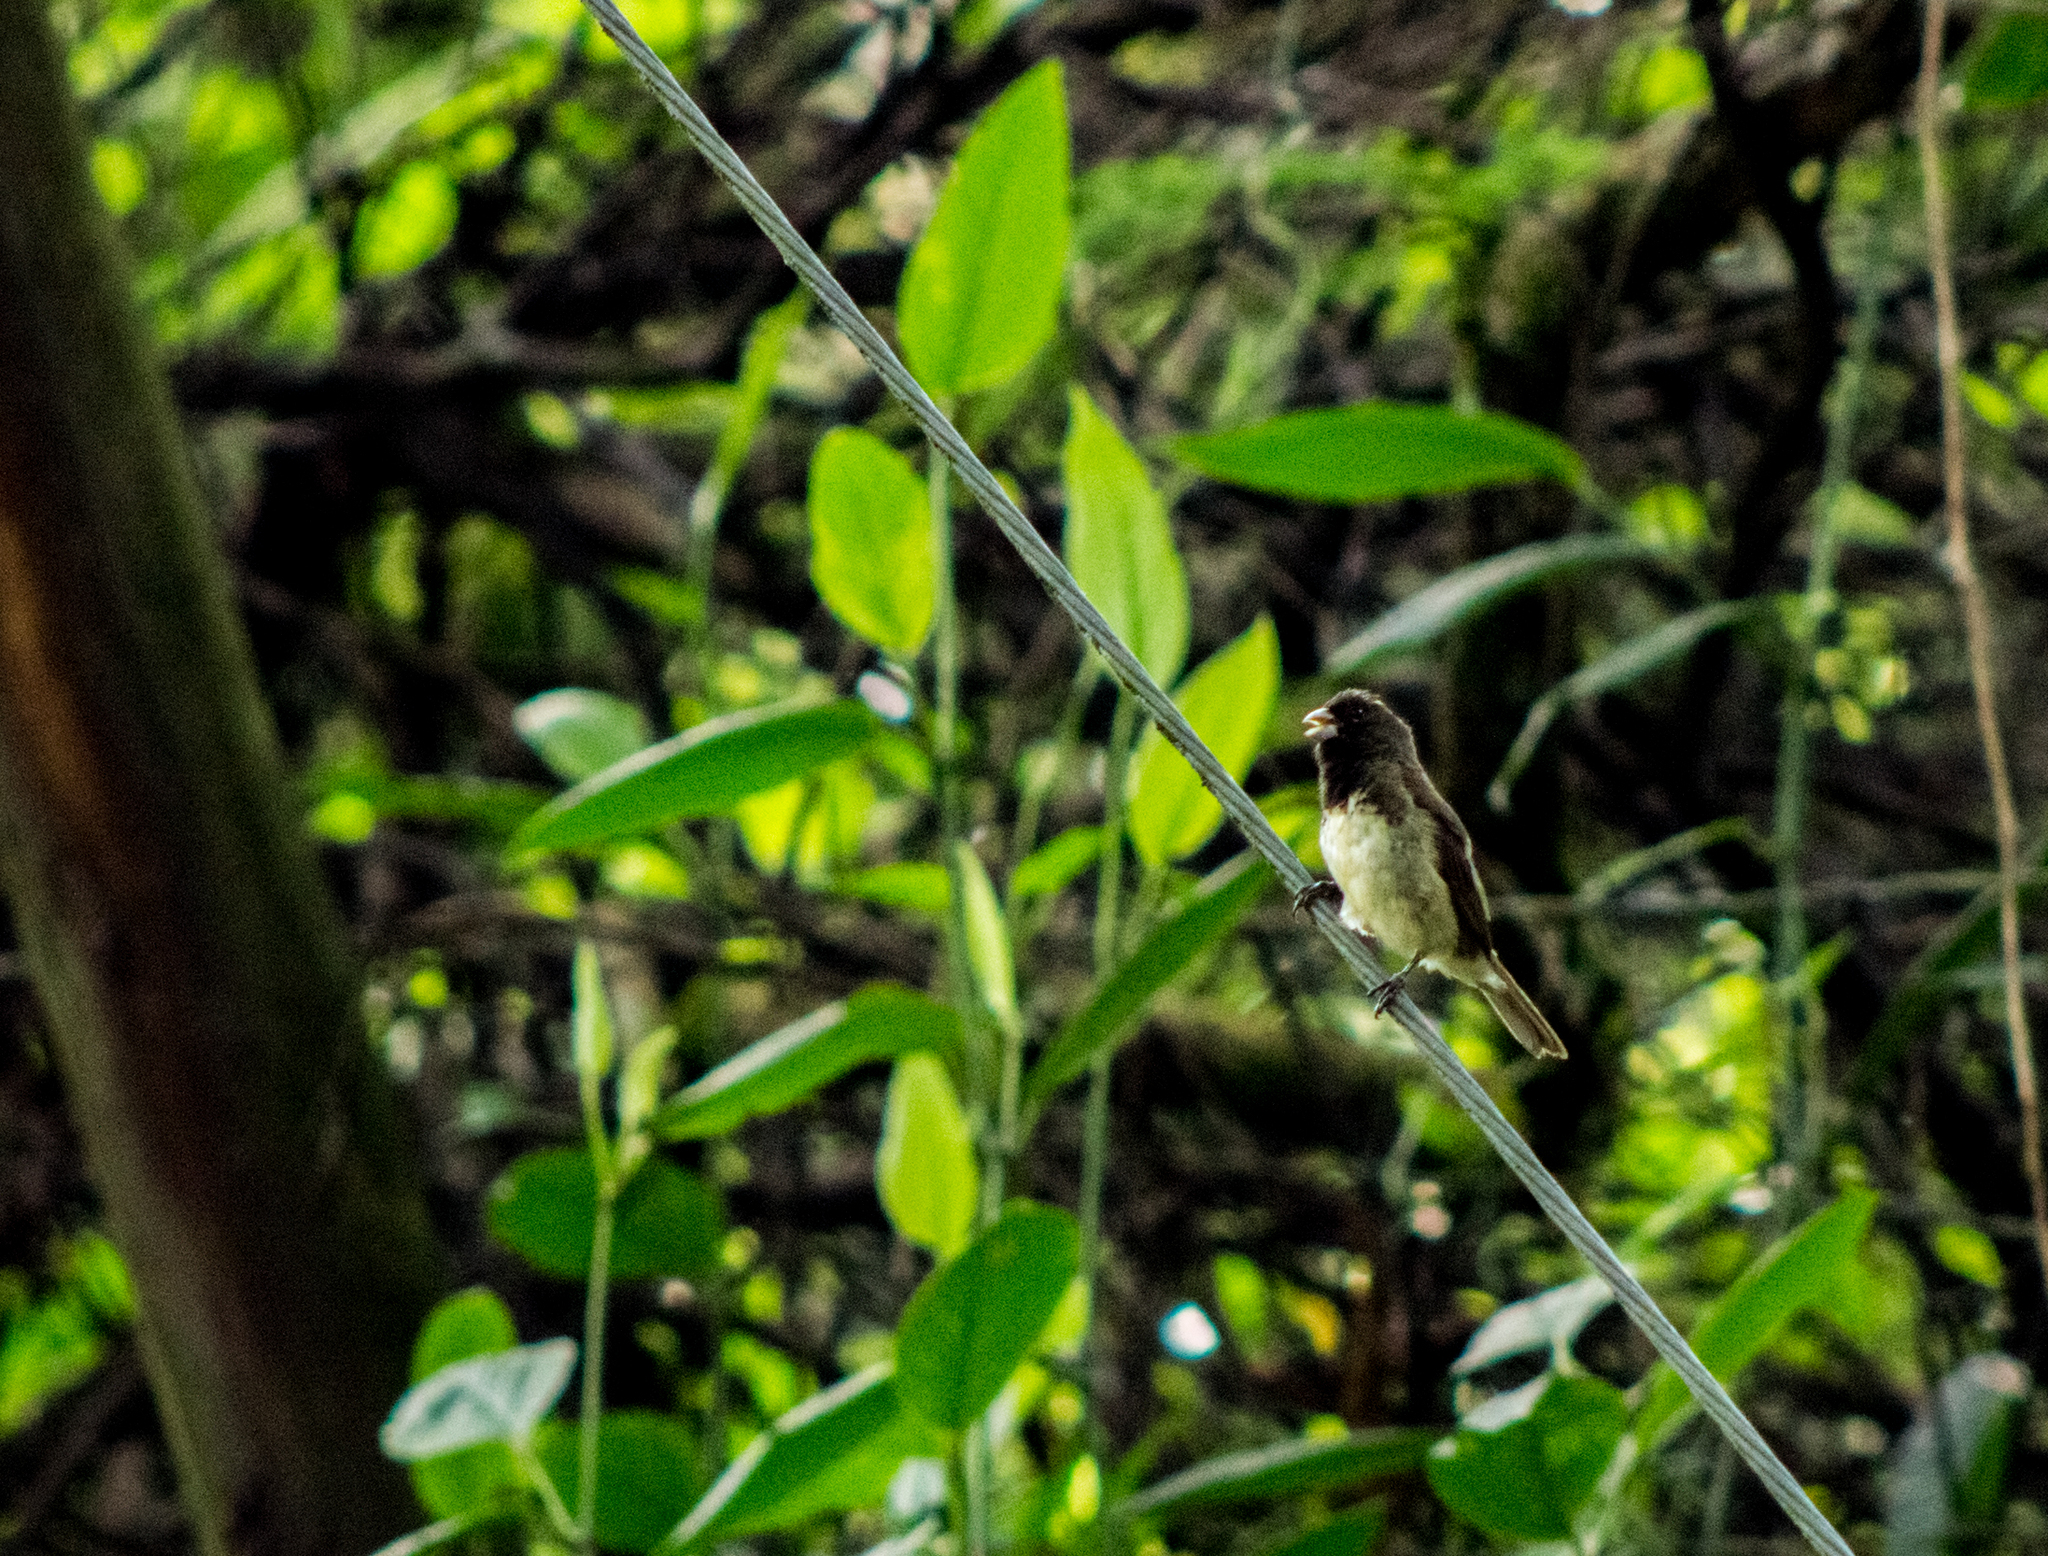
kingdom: Animalia
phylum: Chordata
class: Aves
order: Passeriformes
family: Thraupidae
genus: Sporophila
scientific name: Sporophila nigricollis
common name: Yellow-bellied seedeater
